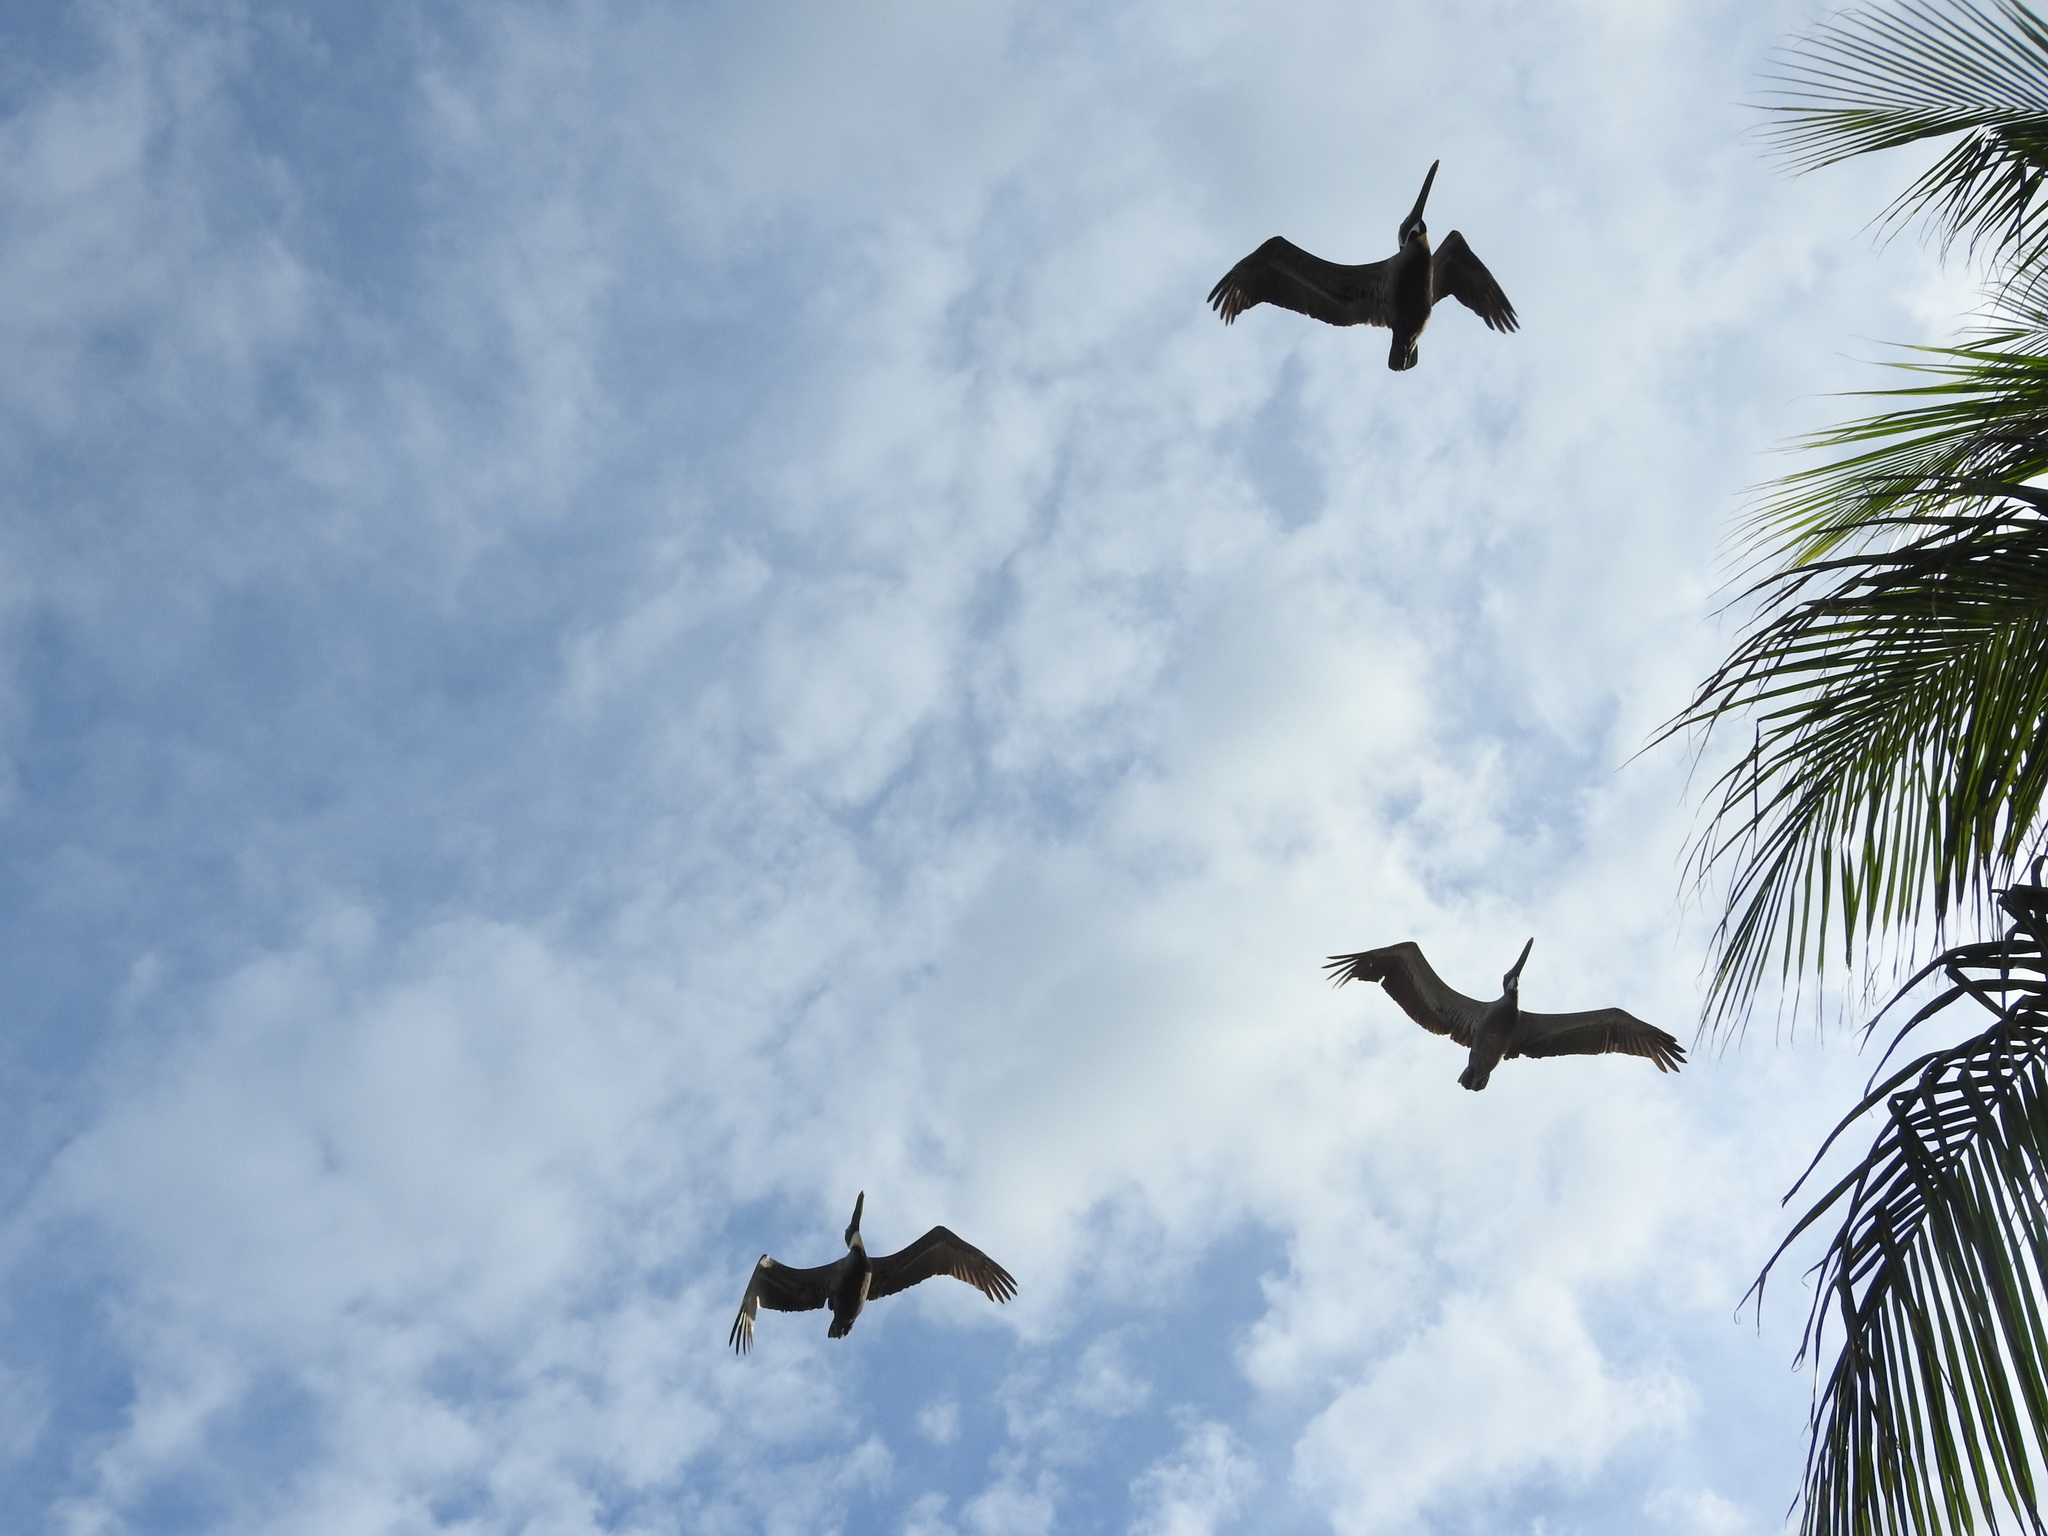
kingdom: Animalia
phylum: Chordata
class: Aves
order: Pelecaniformes
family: Pelecanidae
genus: Pelecanus
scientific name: Pelecanus occidentalis
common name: Brown pelican
